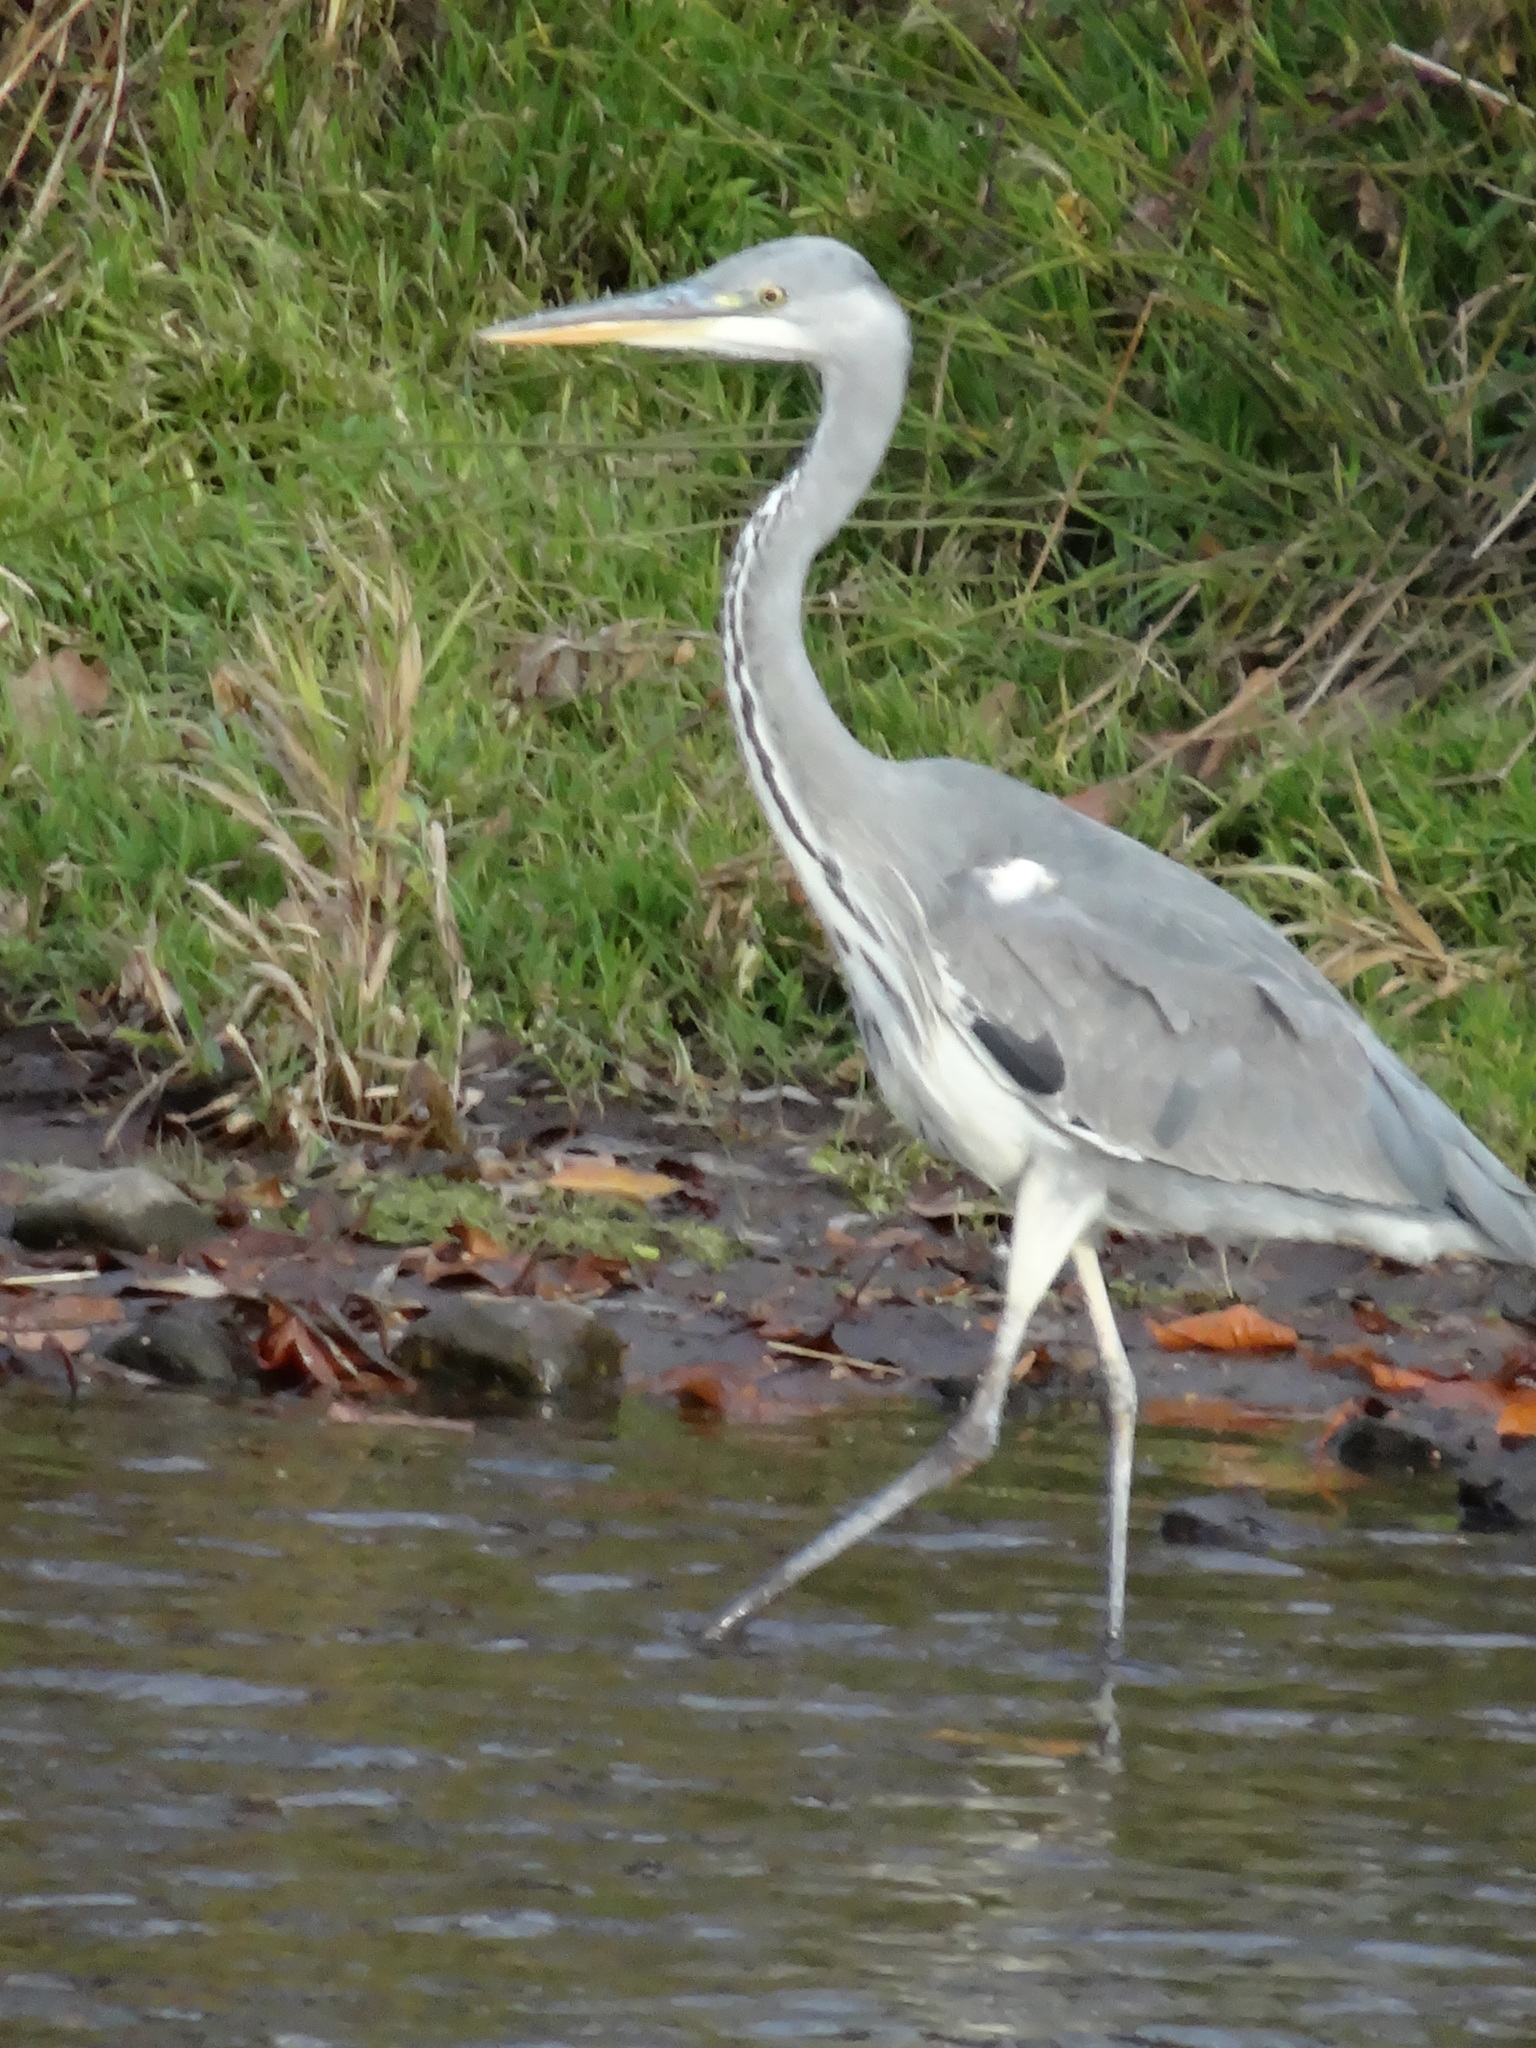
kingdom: Animalia
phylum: Chordata
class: Aves
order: Pelecaniformes
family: Ardeidae
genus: Ardea
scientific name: Ardea cinerea
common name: Grey heron
